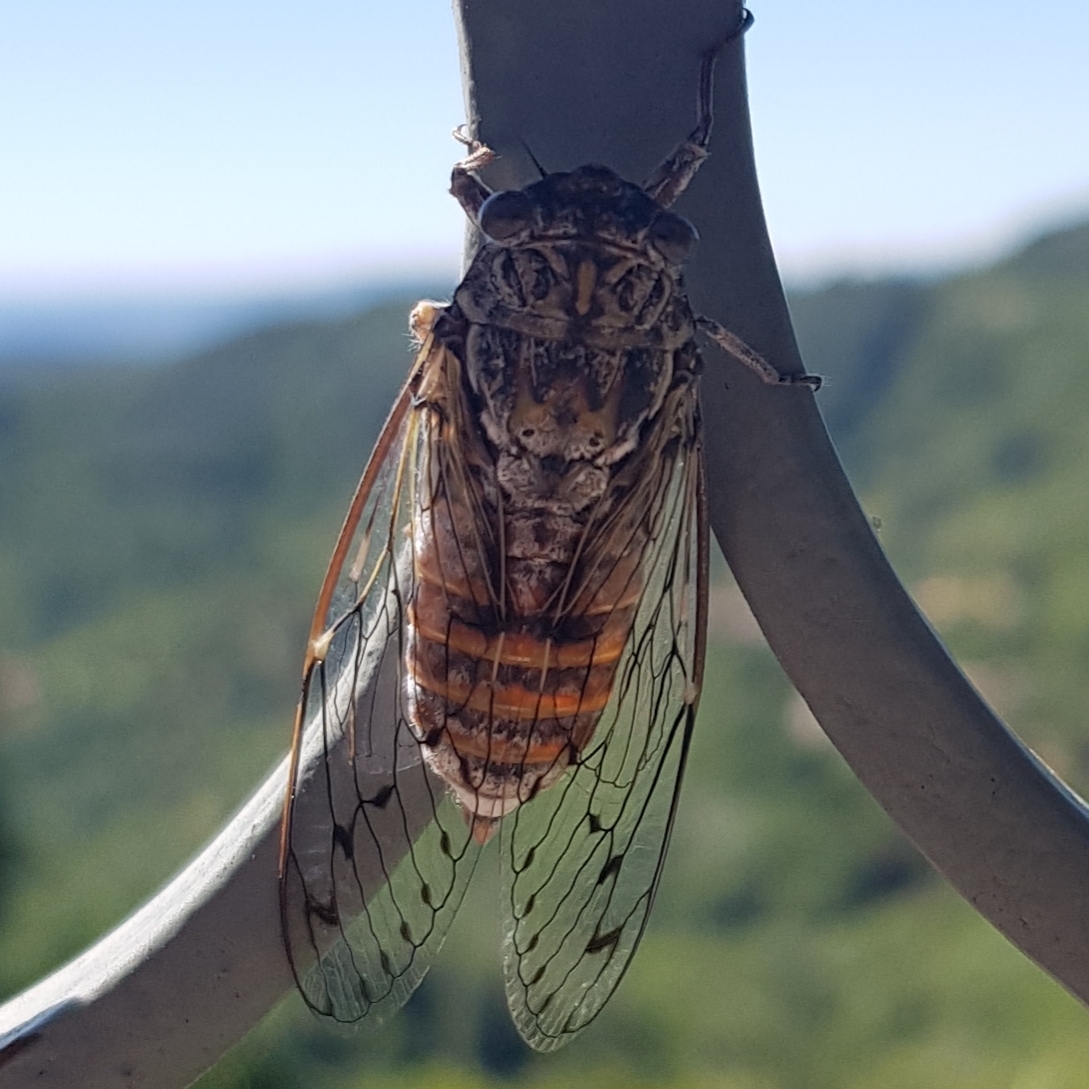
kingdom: Animalia
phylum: Arthropoda
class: Insecta
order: Hemiptera
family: Cicadidae
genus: Cicada
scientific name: Cicada orni
